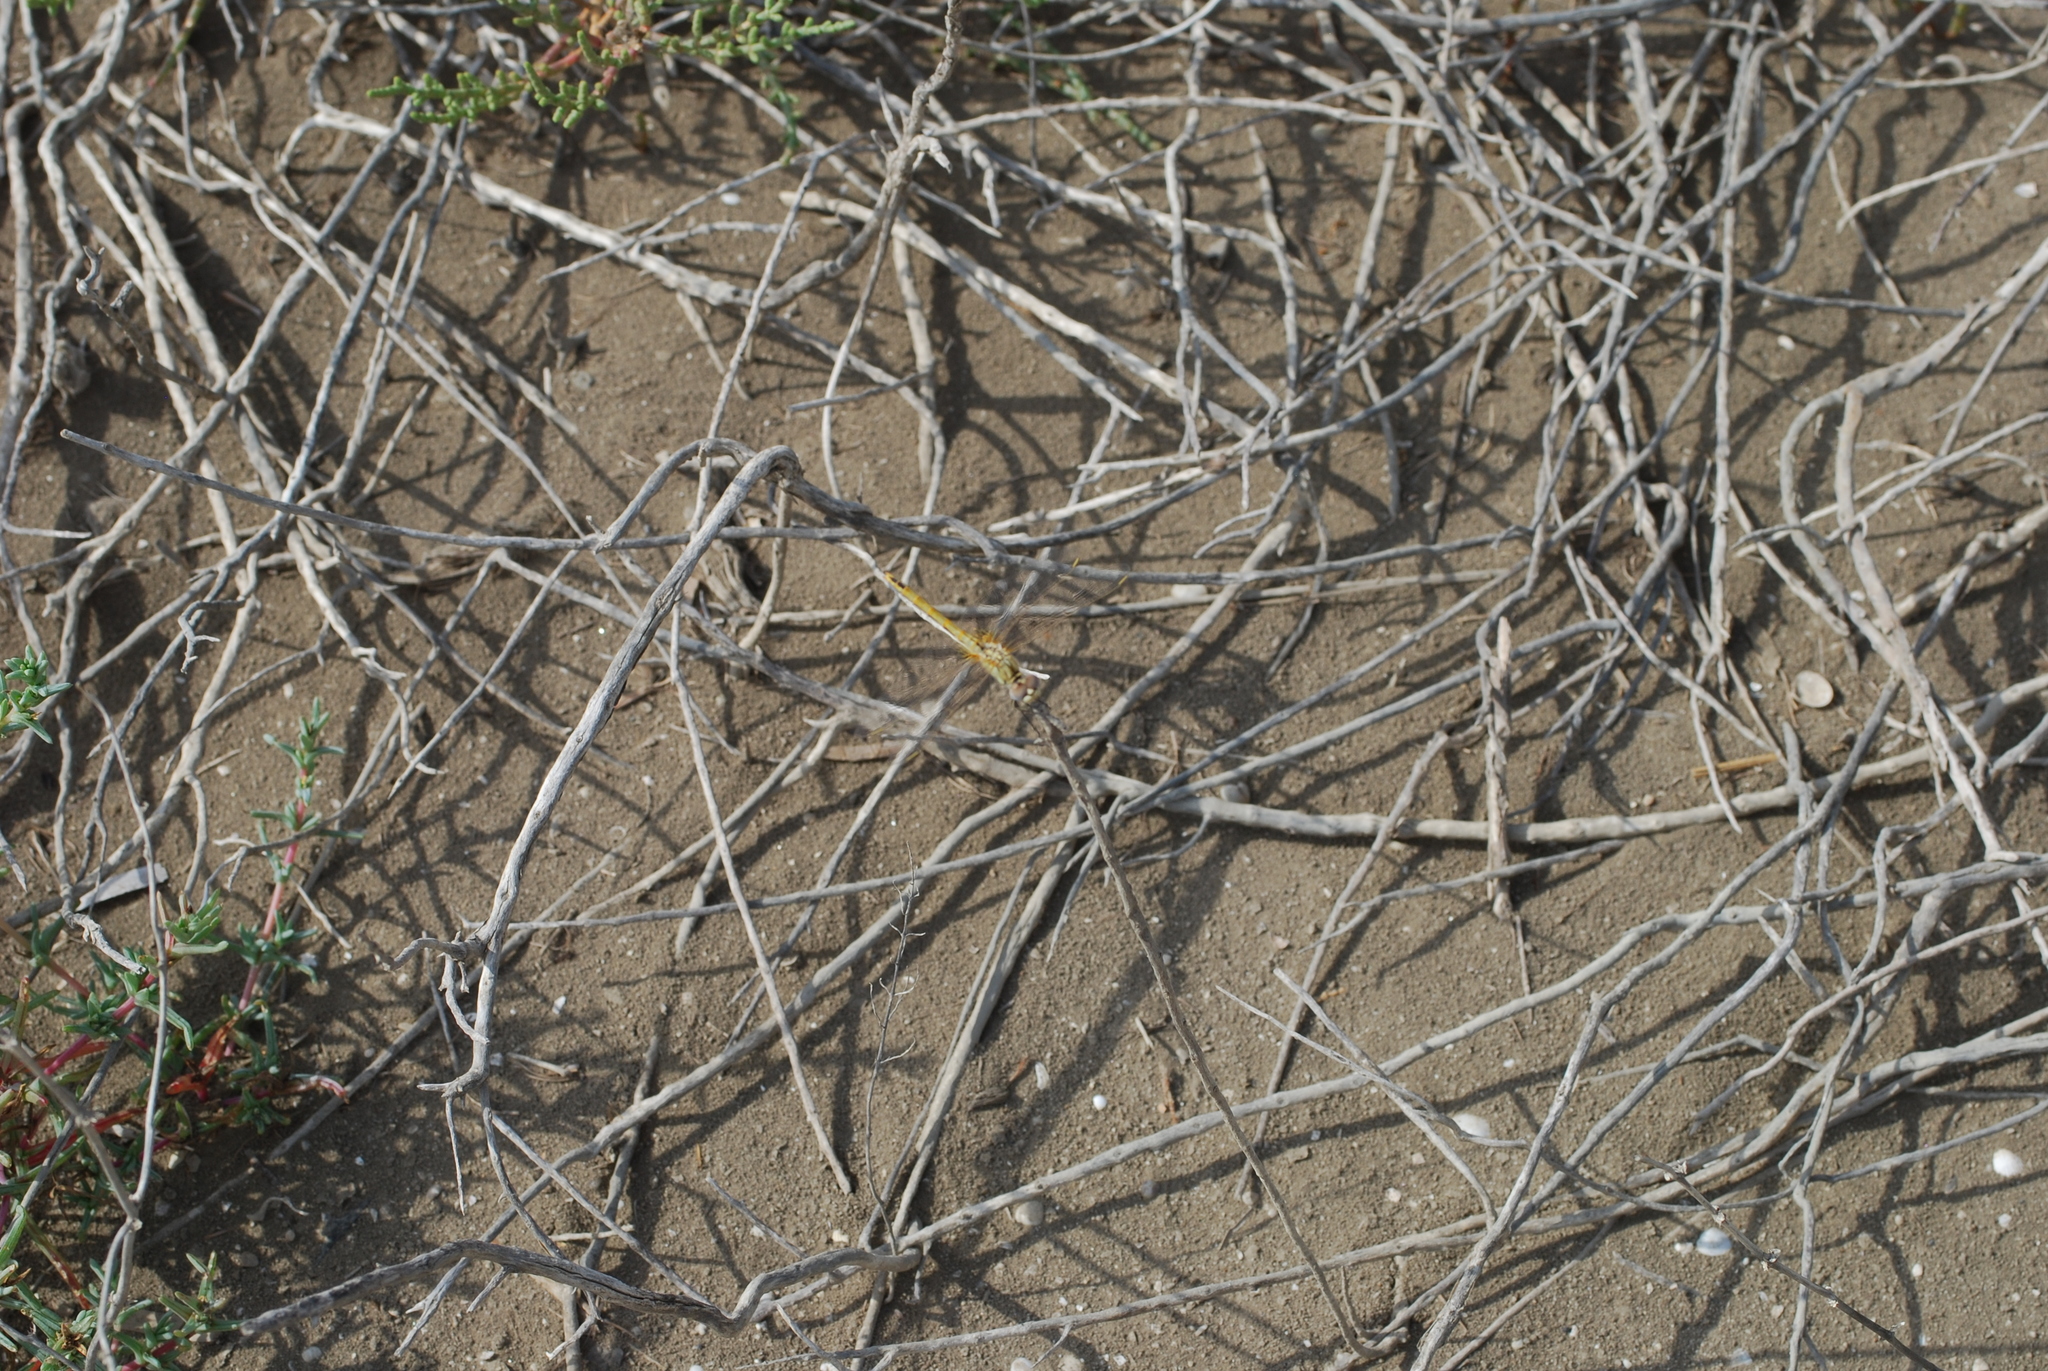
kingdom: Animalia
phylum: Arthropoda
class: Insecta
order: Odonata
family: Libellulidae
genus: Sympetrum
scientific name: Sympetrum fonscolombii
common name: Red-veined darter
